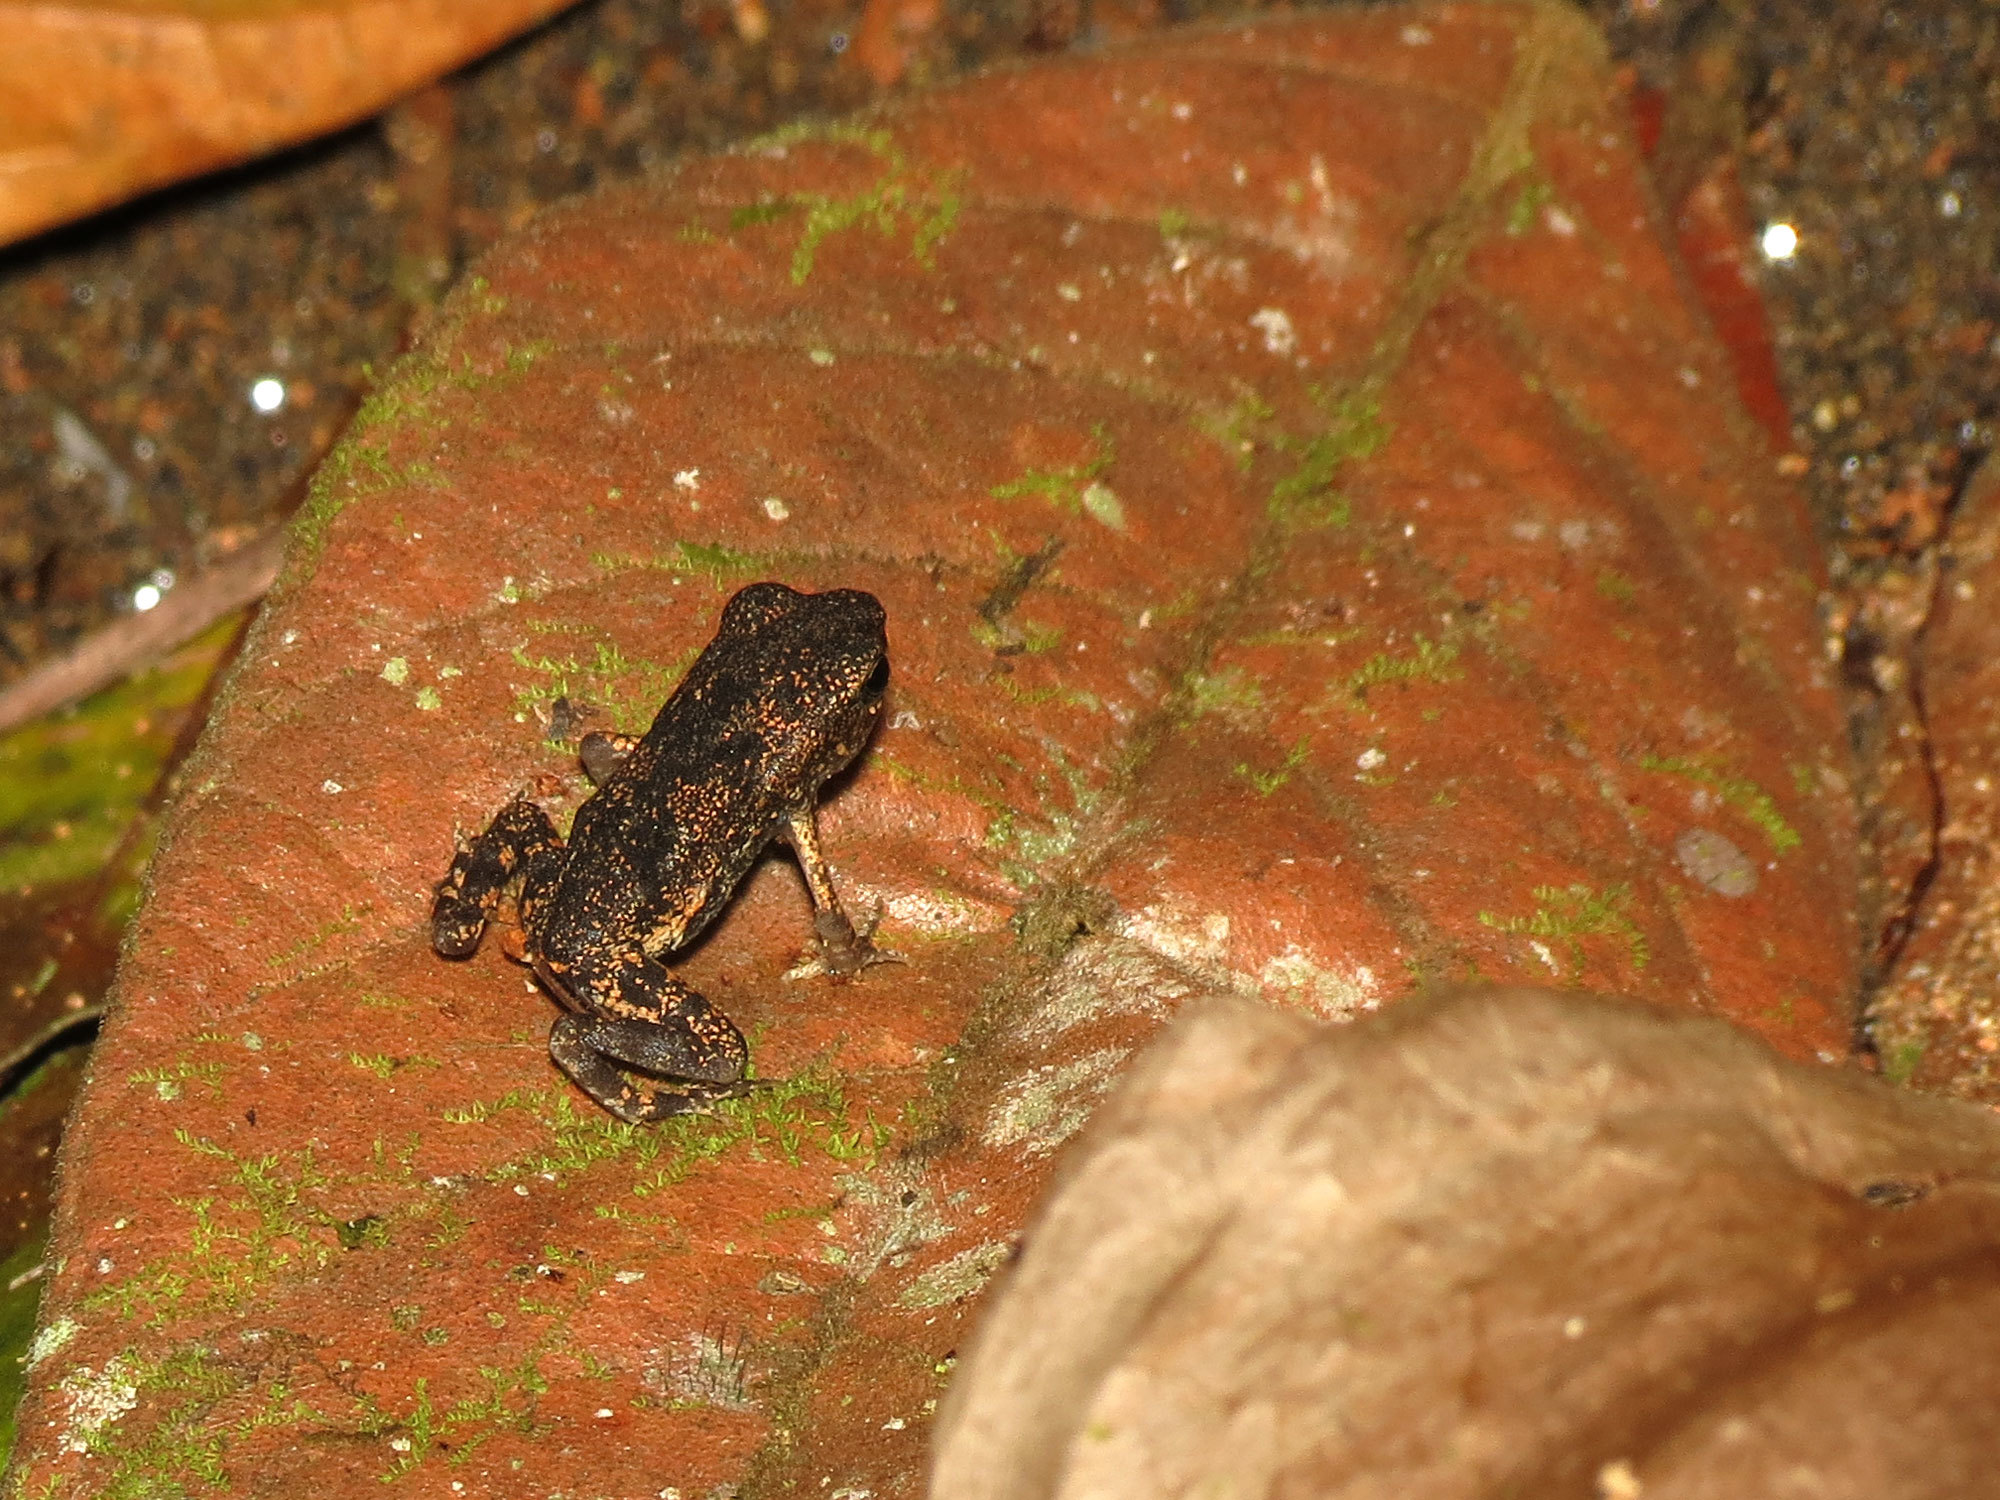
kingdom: Animalia
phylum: Chordata
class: Amphibia
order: Anura
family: Bufonidae
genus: Rhaebo
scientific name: Rhaebo haematiticus
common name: Truando toad
